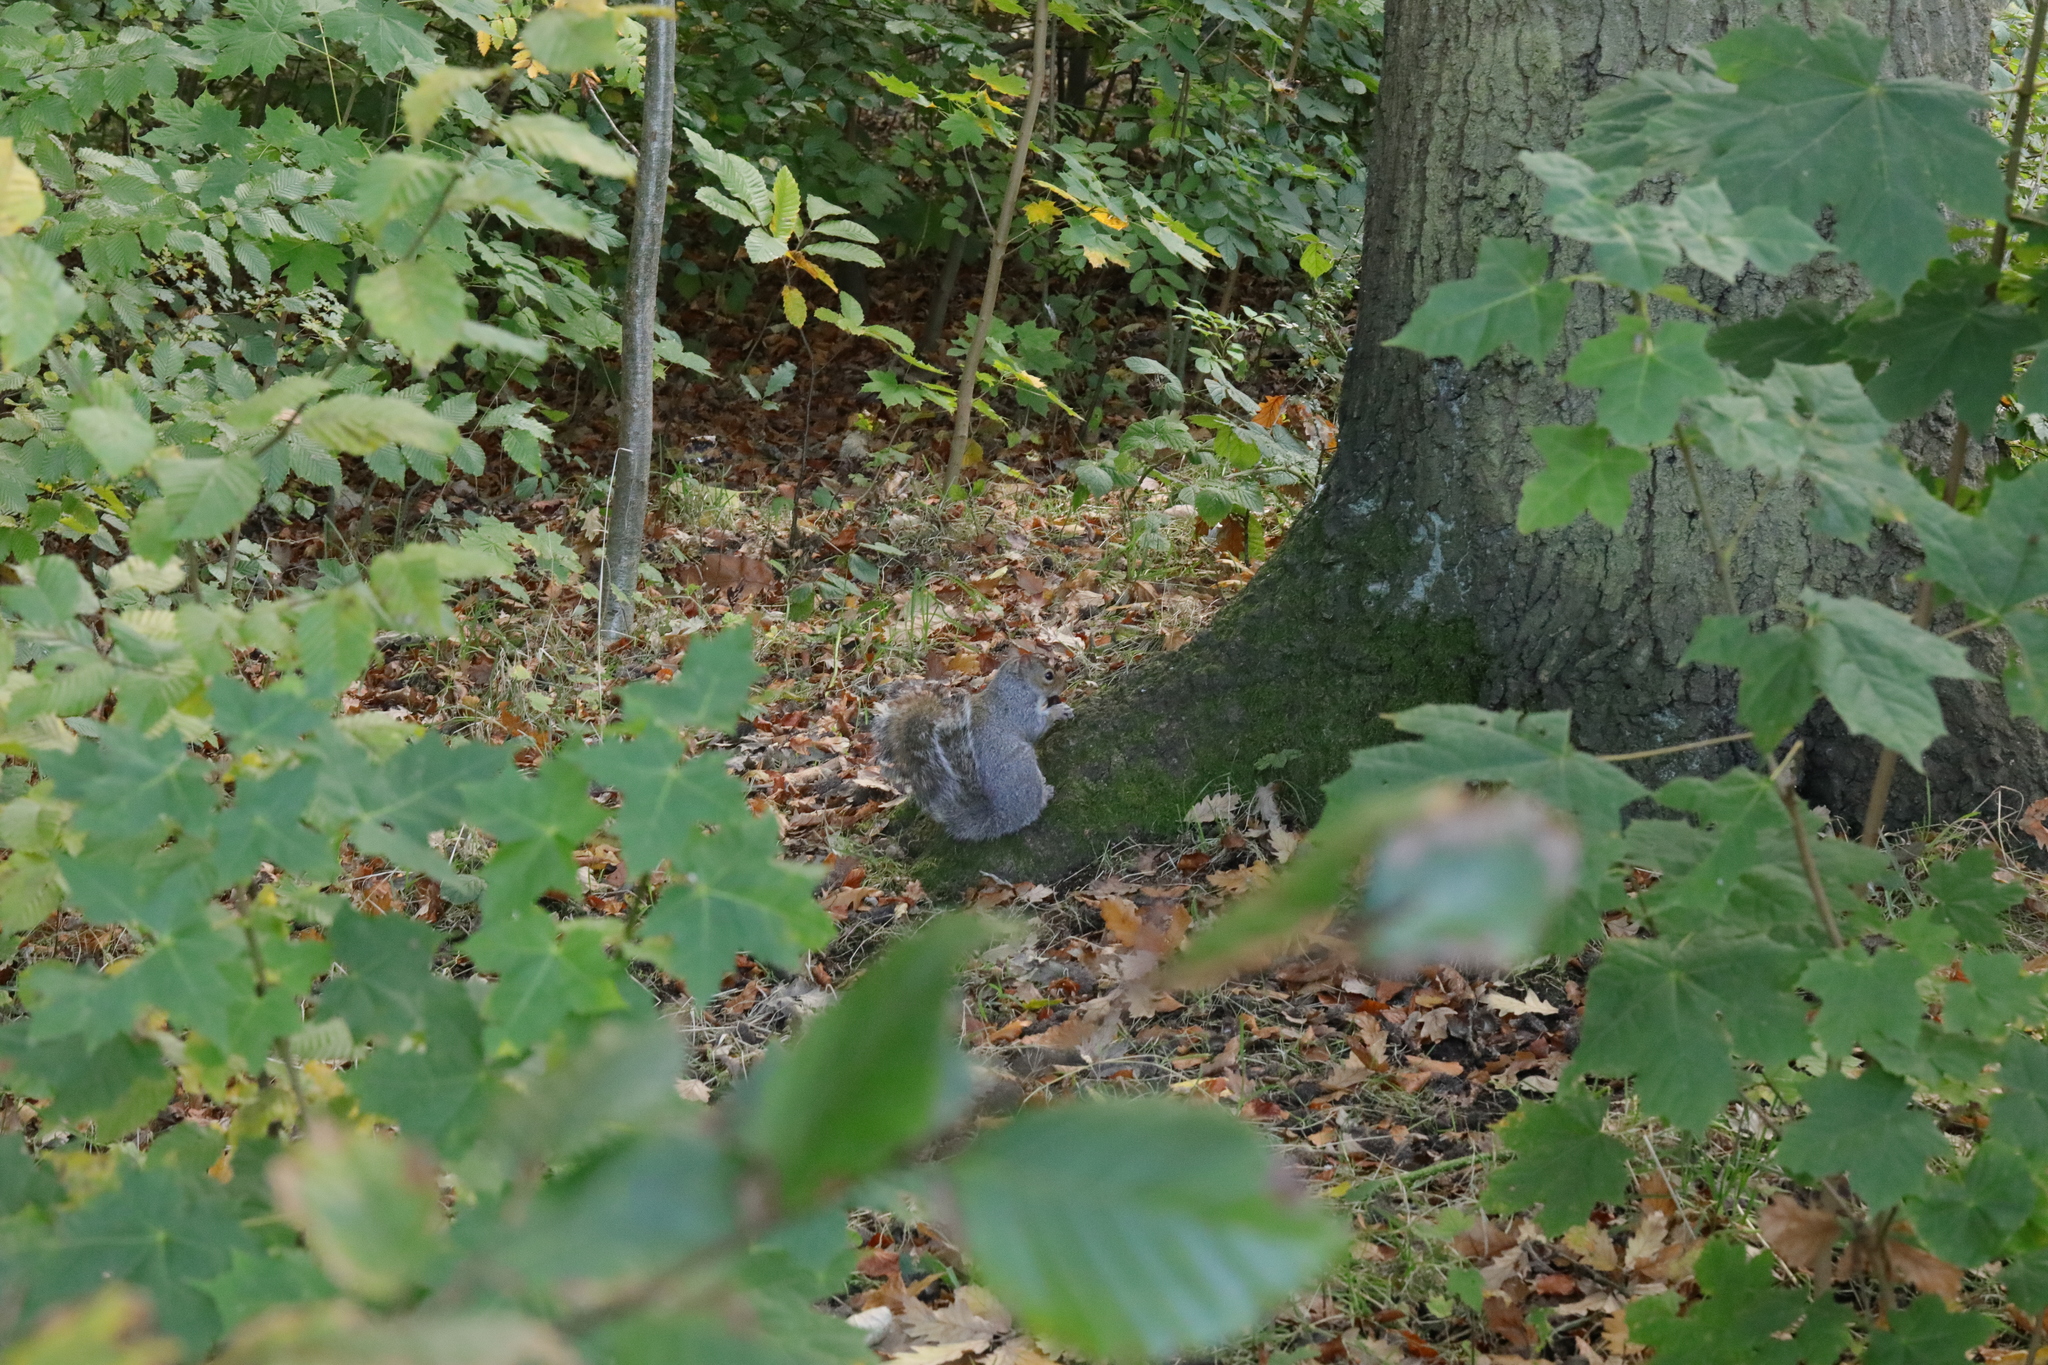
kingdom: Animalia
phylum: Chordata
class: Mammalia
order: Rodentia
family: Sciuridae
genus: Sciurus
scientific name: Sciurus carolinensis
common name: Eastern gray squirrel
